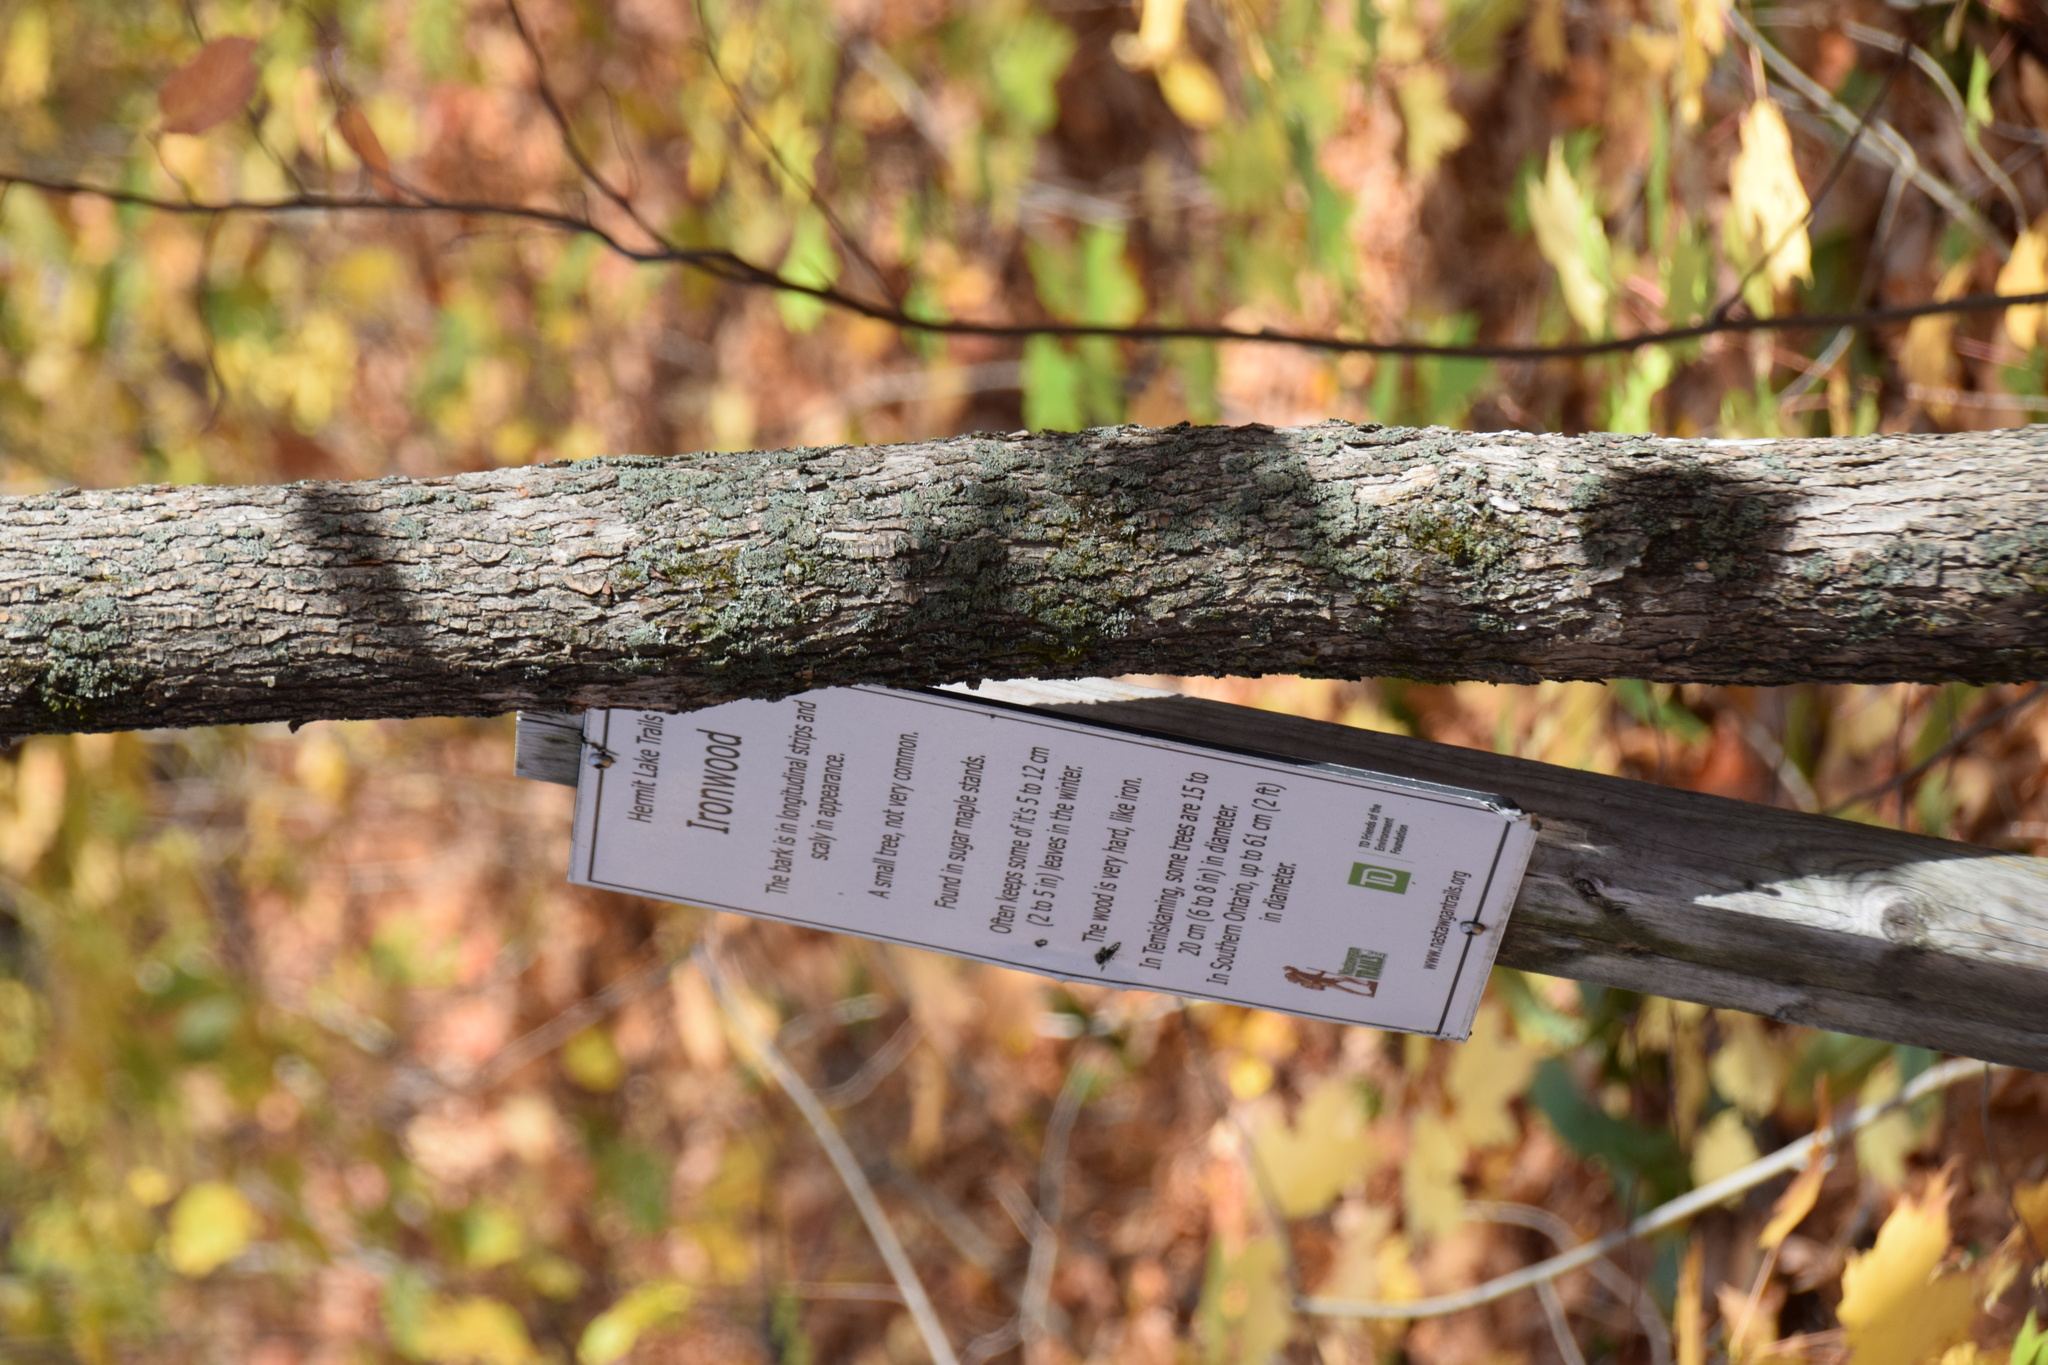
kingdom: Plantae
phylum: Tracheophyta
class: Magnoliopsida
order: Fagales
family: Betulaceae
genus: Ostrya
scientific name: Ostrya virginiana
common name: Ironwood
